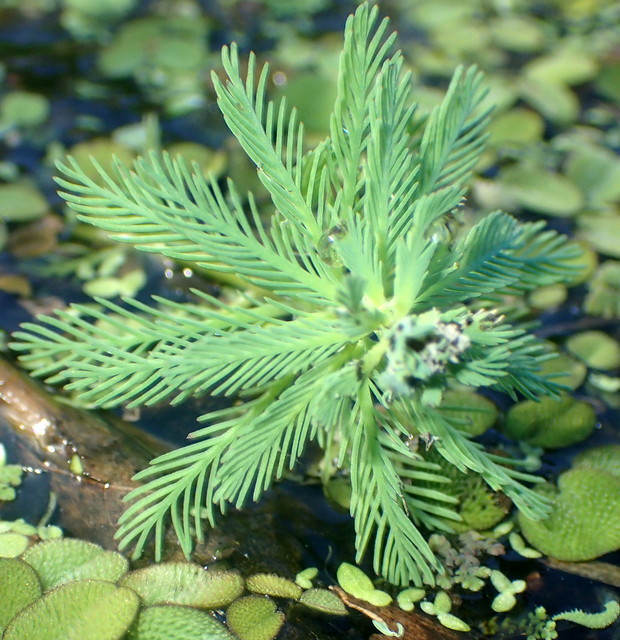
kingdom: Plantae
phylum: Tracheophyta
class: Magnoliopsida
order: Saxifragales
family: Haloragaceae
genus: Myriophyllum
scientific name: Myriophyllum aquaticum
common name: Parrot's feather
